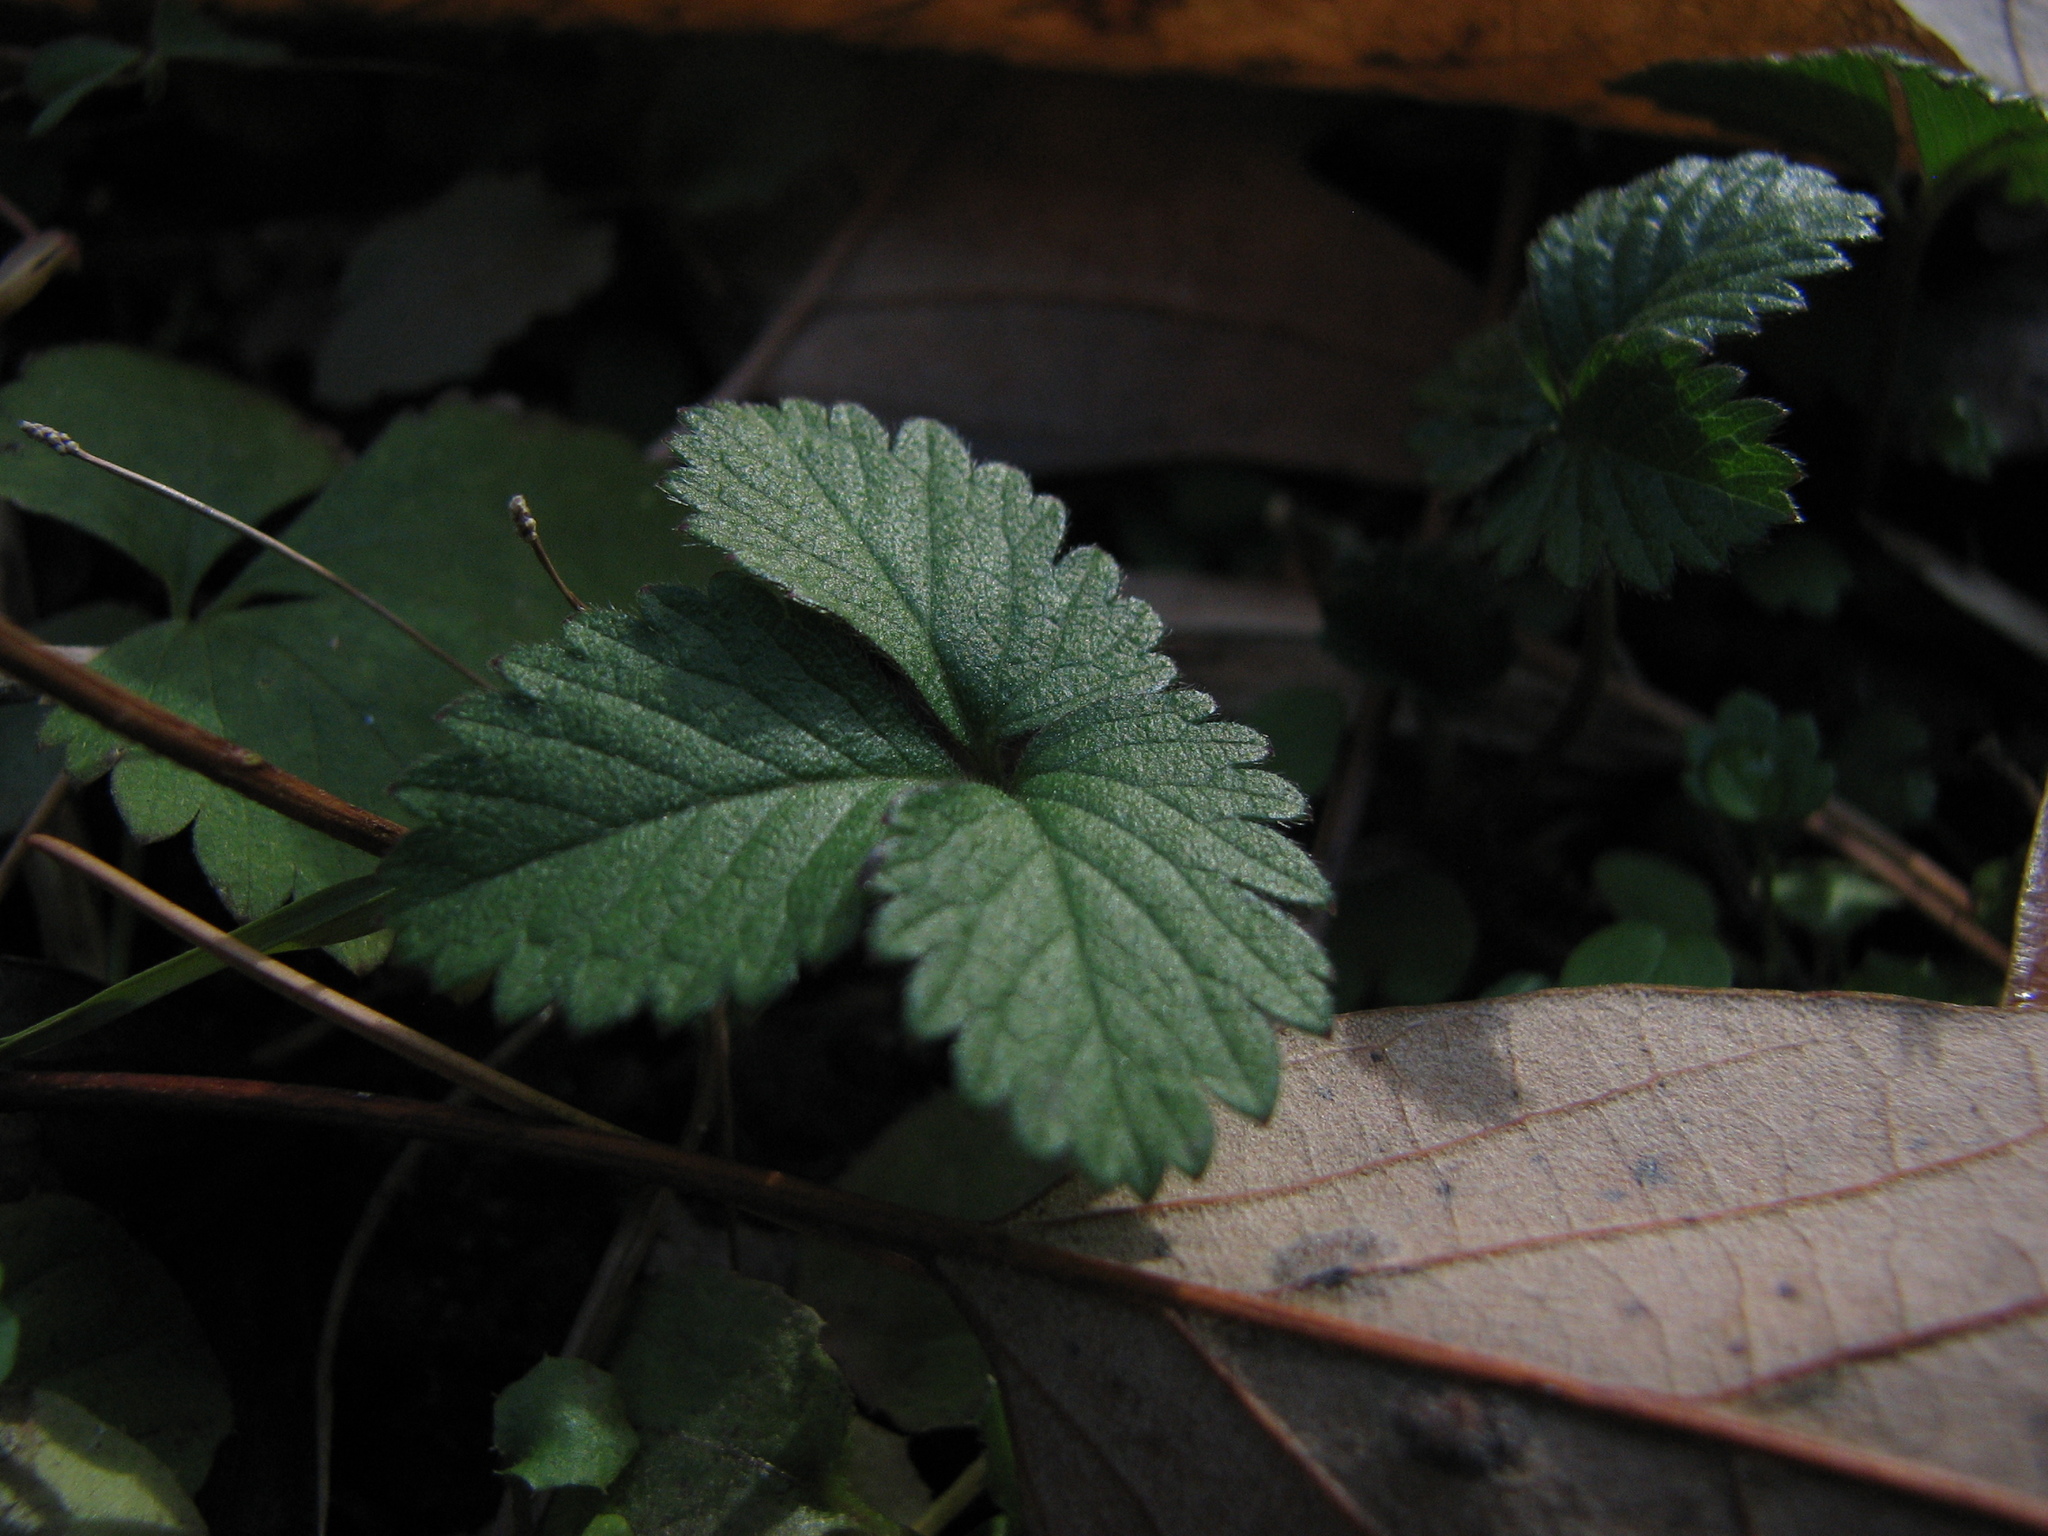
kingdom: Plantae
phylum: Tracheophyta
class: Magnoliopsida
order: Rosales
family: Rosaceae
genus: Potentilla
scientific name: Potentilla indica
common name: Yellow-flowered strawberry
